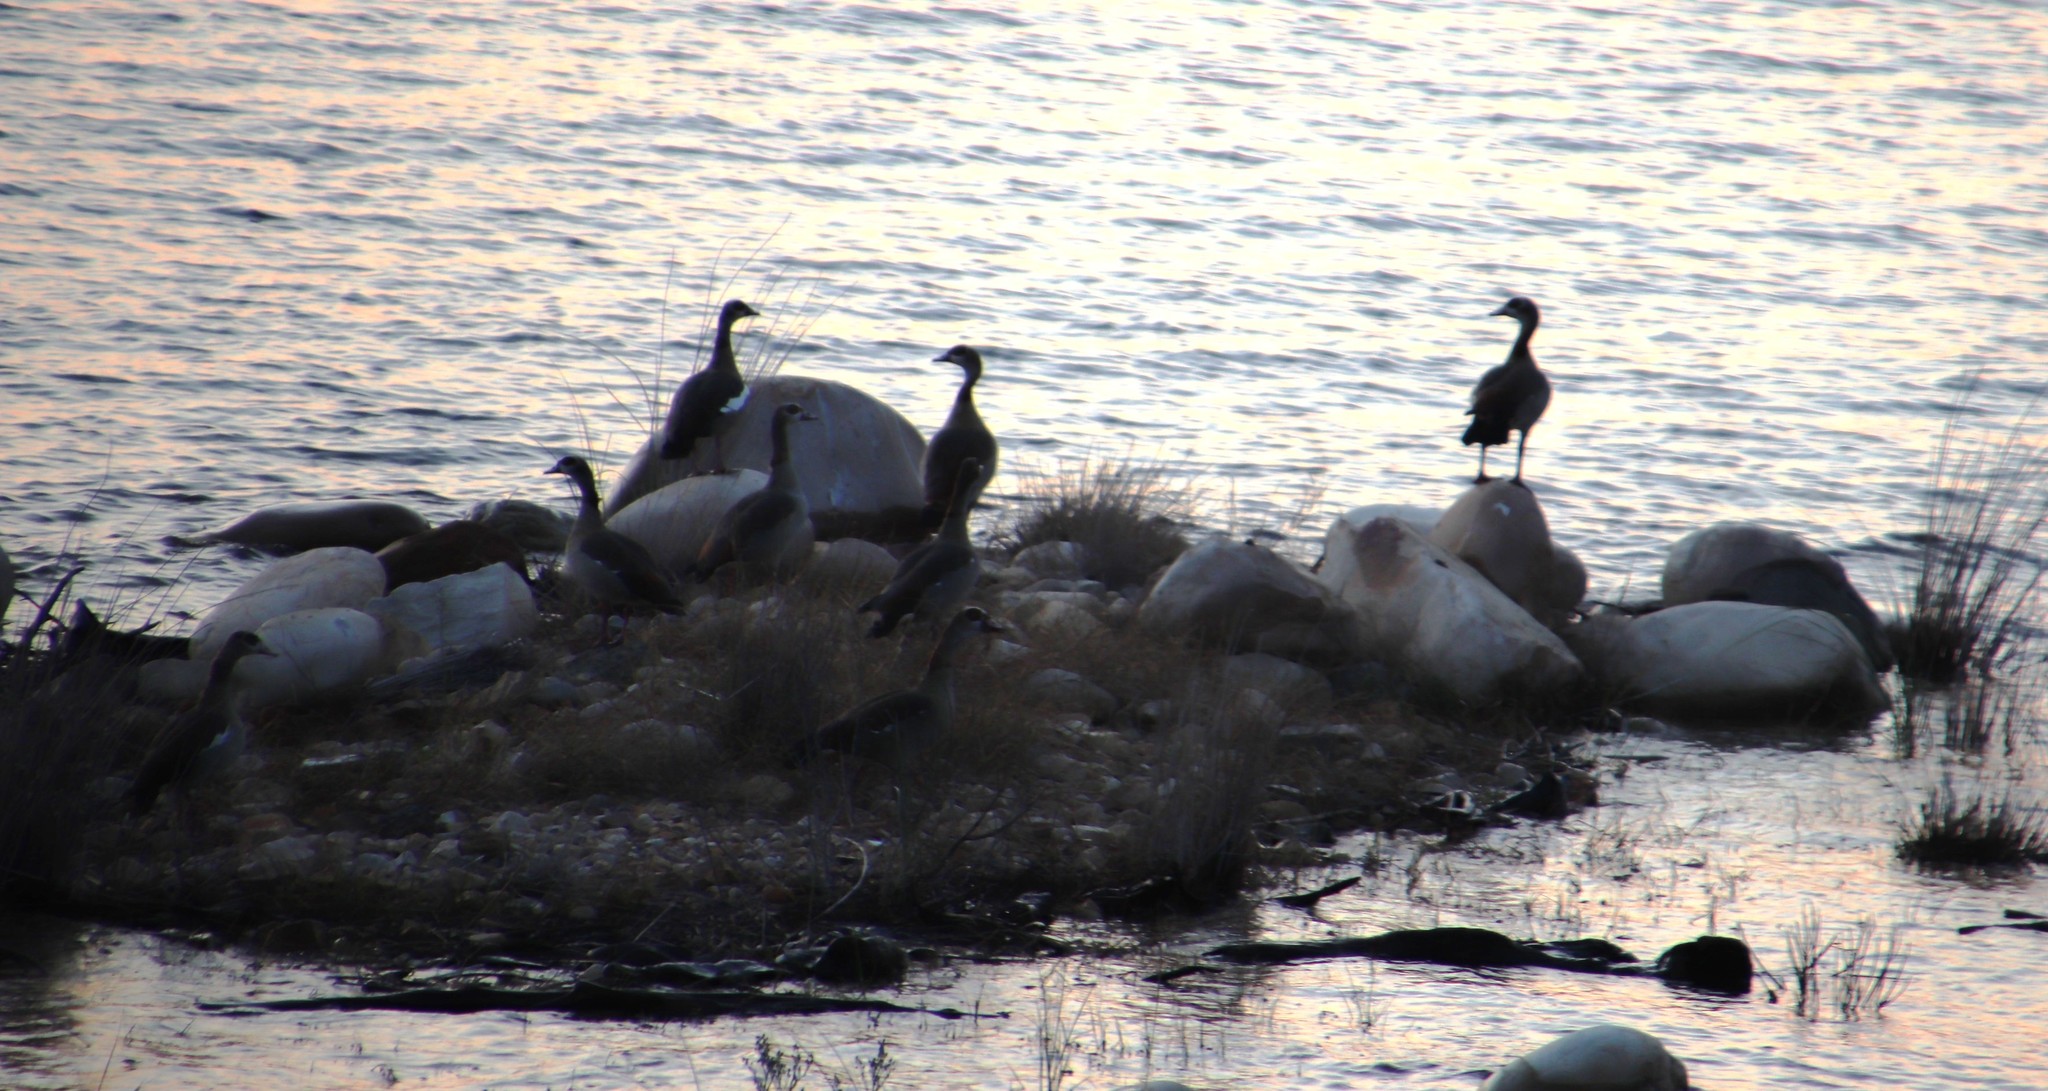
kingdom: Animalia
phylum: Chordata
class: Aves
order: Anseriformes
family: Anatidae
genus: Alopochen
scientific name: Alopochen aegyptiaca
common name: Egyptian goose
